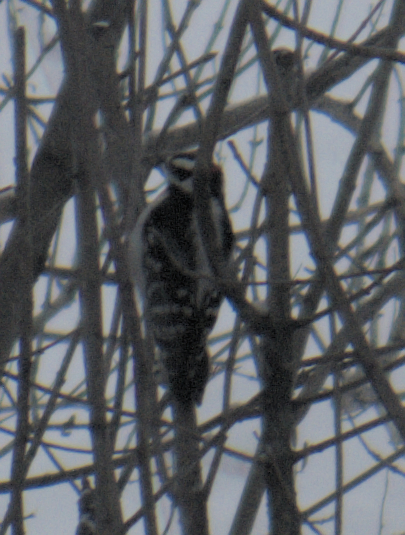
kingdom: Animalia
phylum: Chordata
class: Aves
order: Piciformes
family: Picidae
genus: Dryobates
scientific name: Dryobates pubescens
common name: Downy woodpecker
